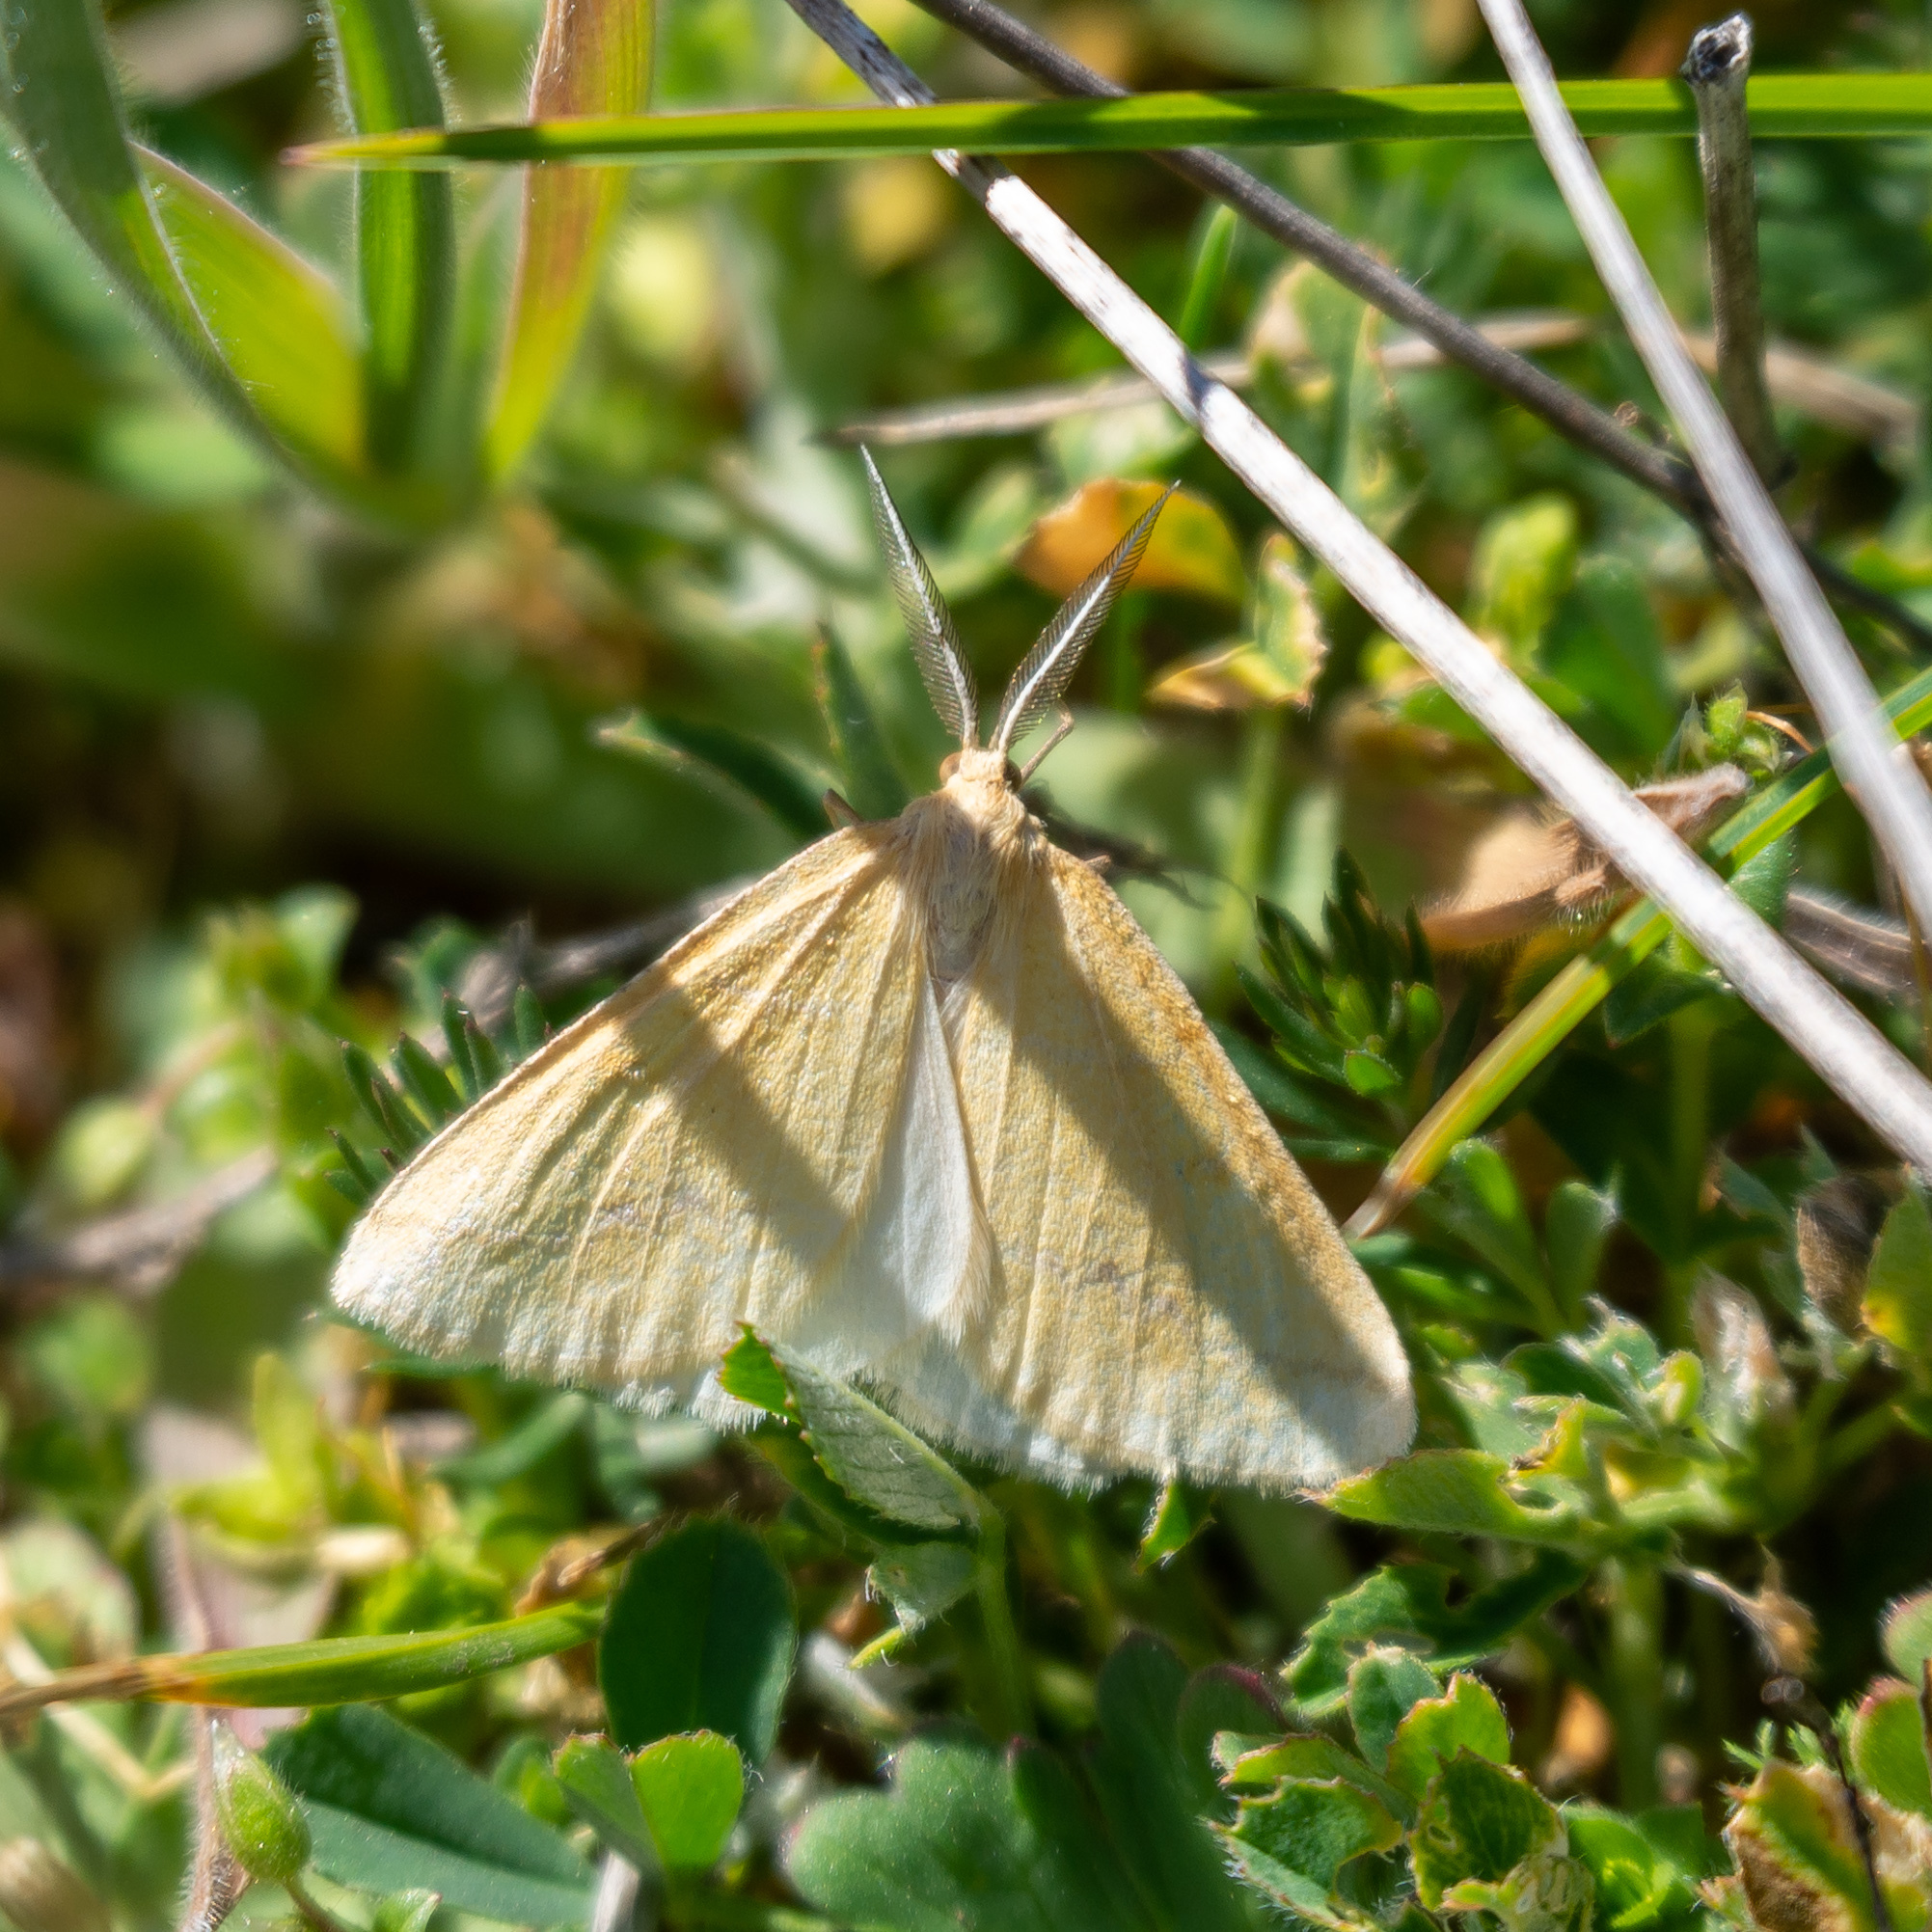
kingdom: Animalia
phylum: Arthropoda
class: Insecta
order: Lepidoptera
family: Geometridae
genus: Aspitates
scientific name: Aspitates ochrearia
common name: Yellow belle
